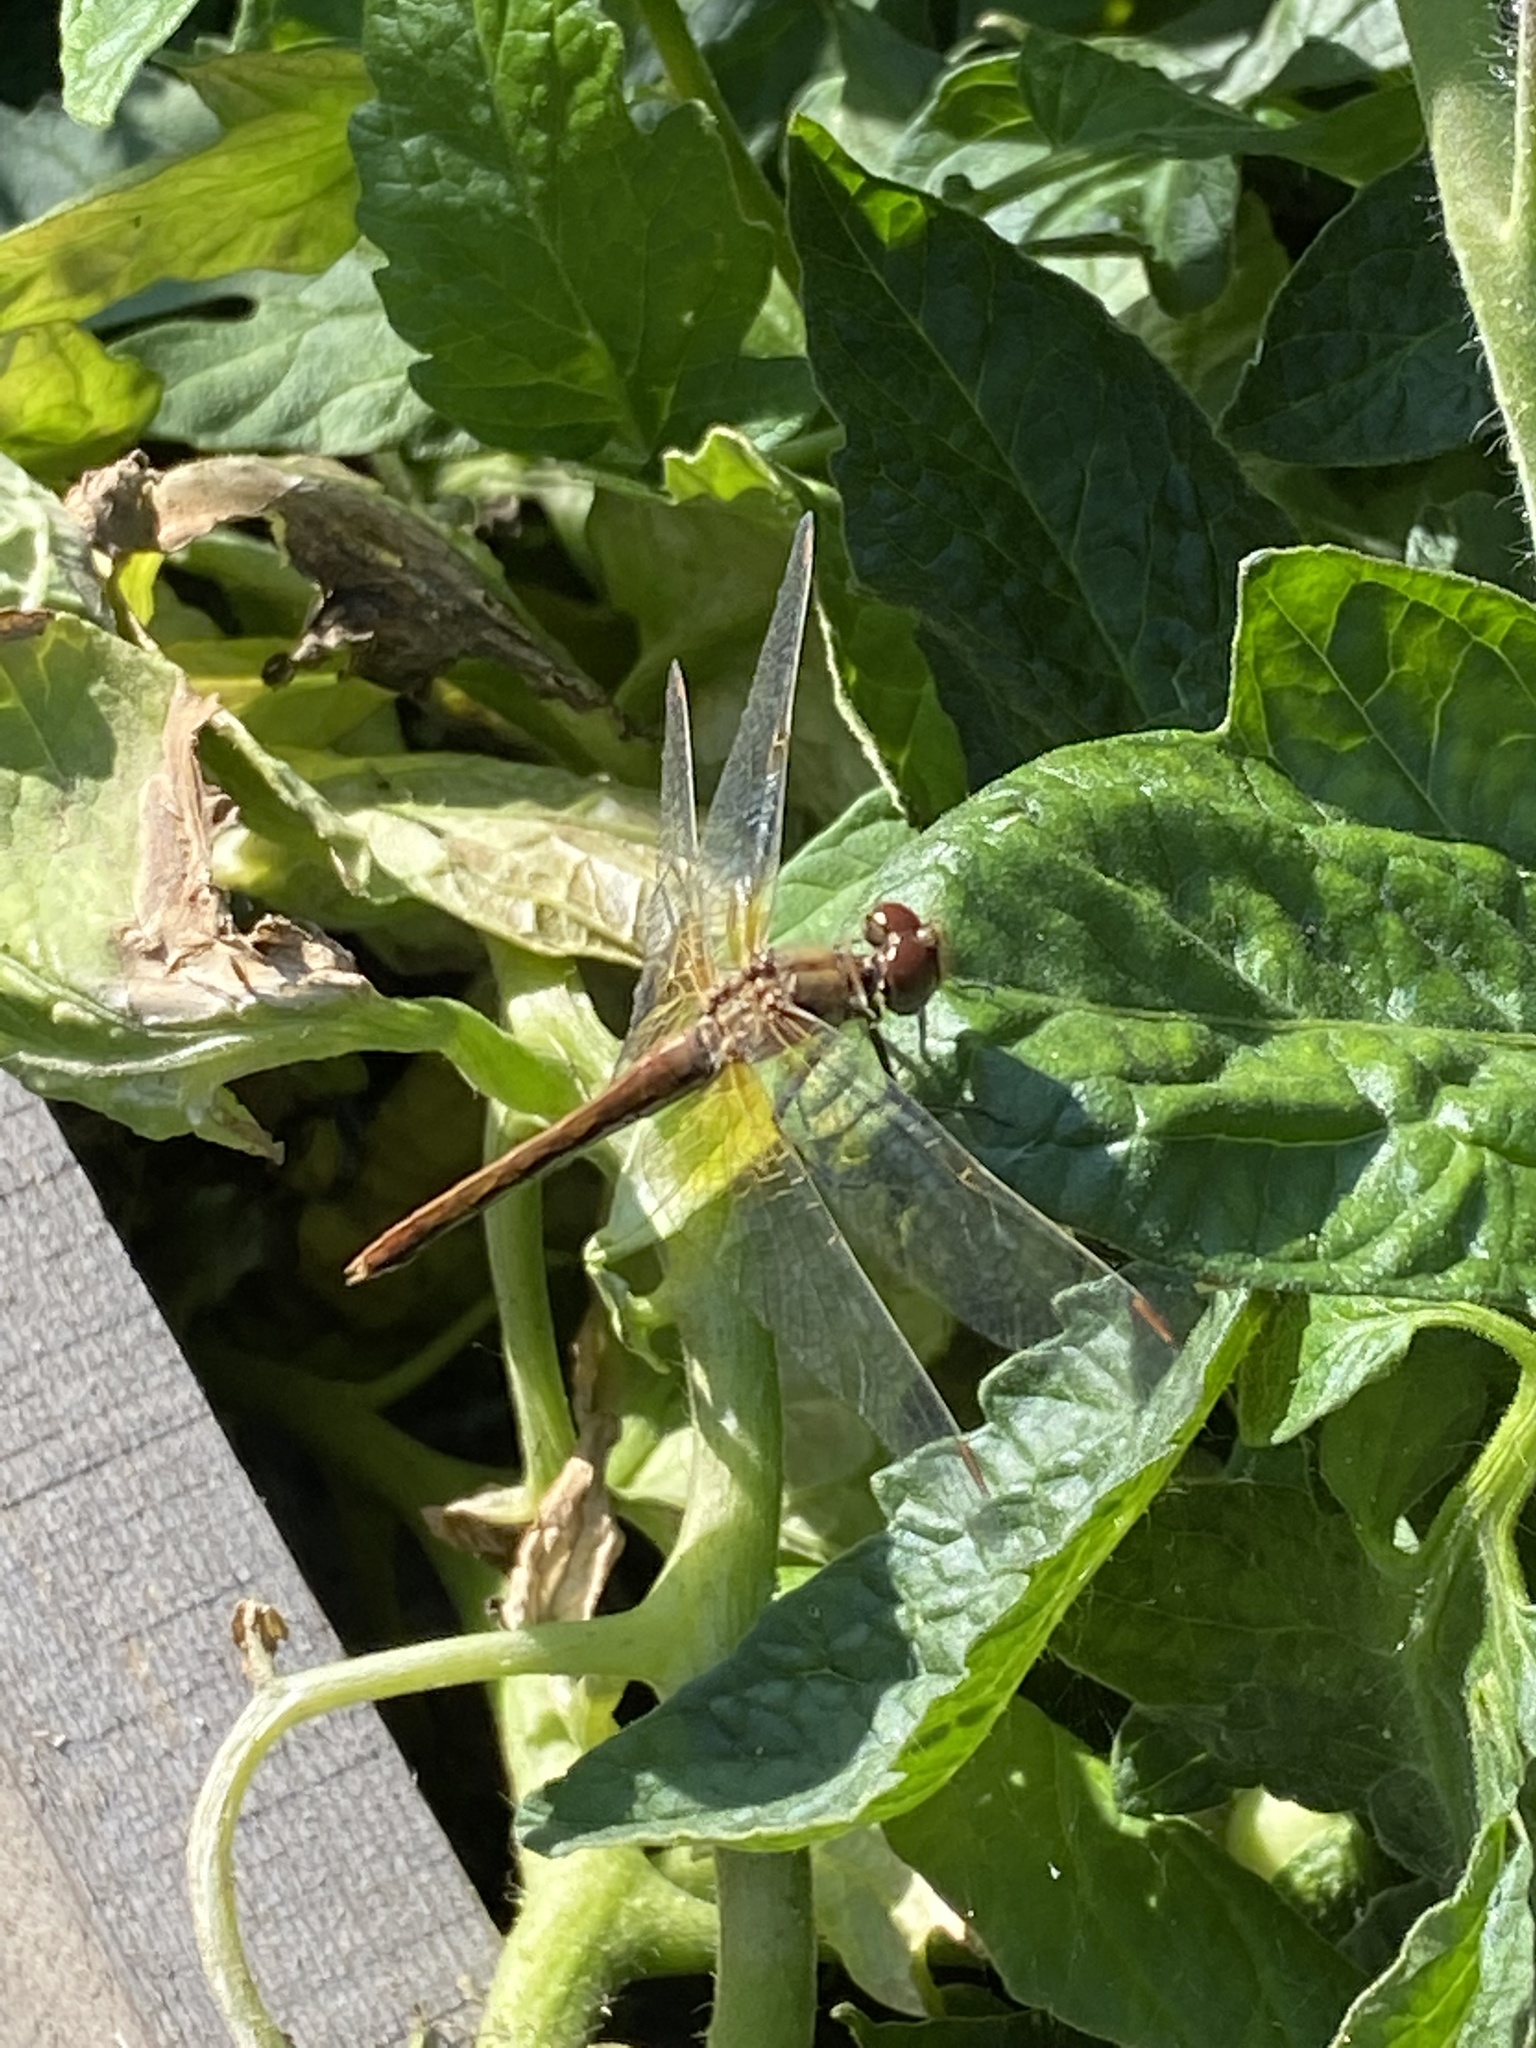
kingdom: Animalia
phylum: Arthropoda
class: Insecta
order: Odonata
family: Libellulidae
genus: Sympetrum
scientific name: Sympetrum flaveolum
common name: Yellow-winged darter
